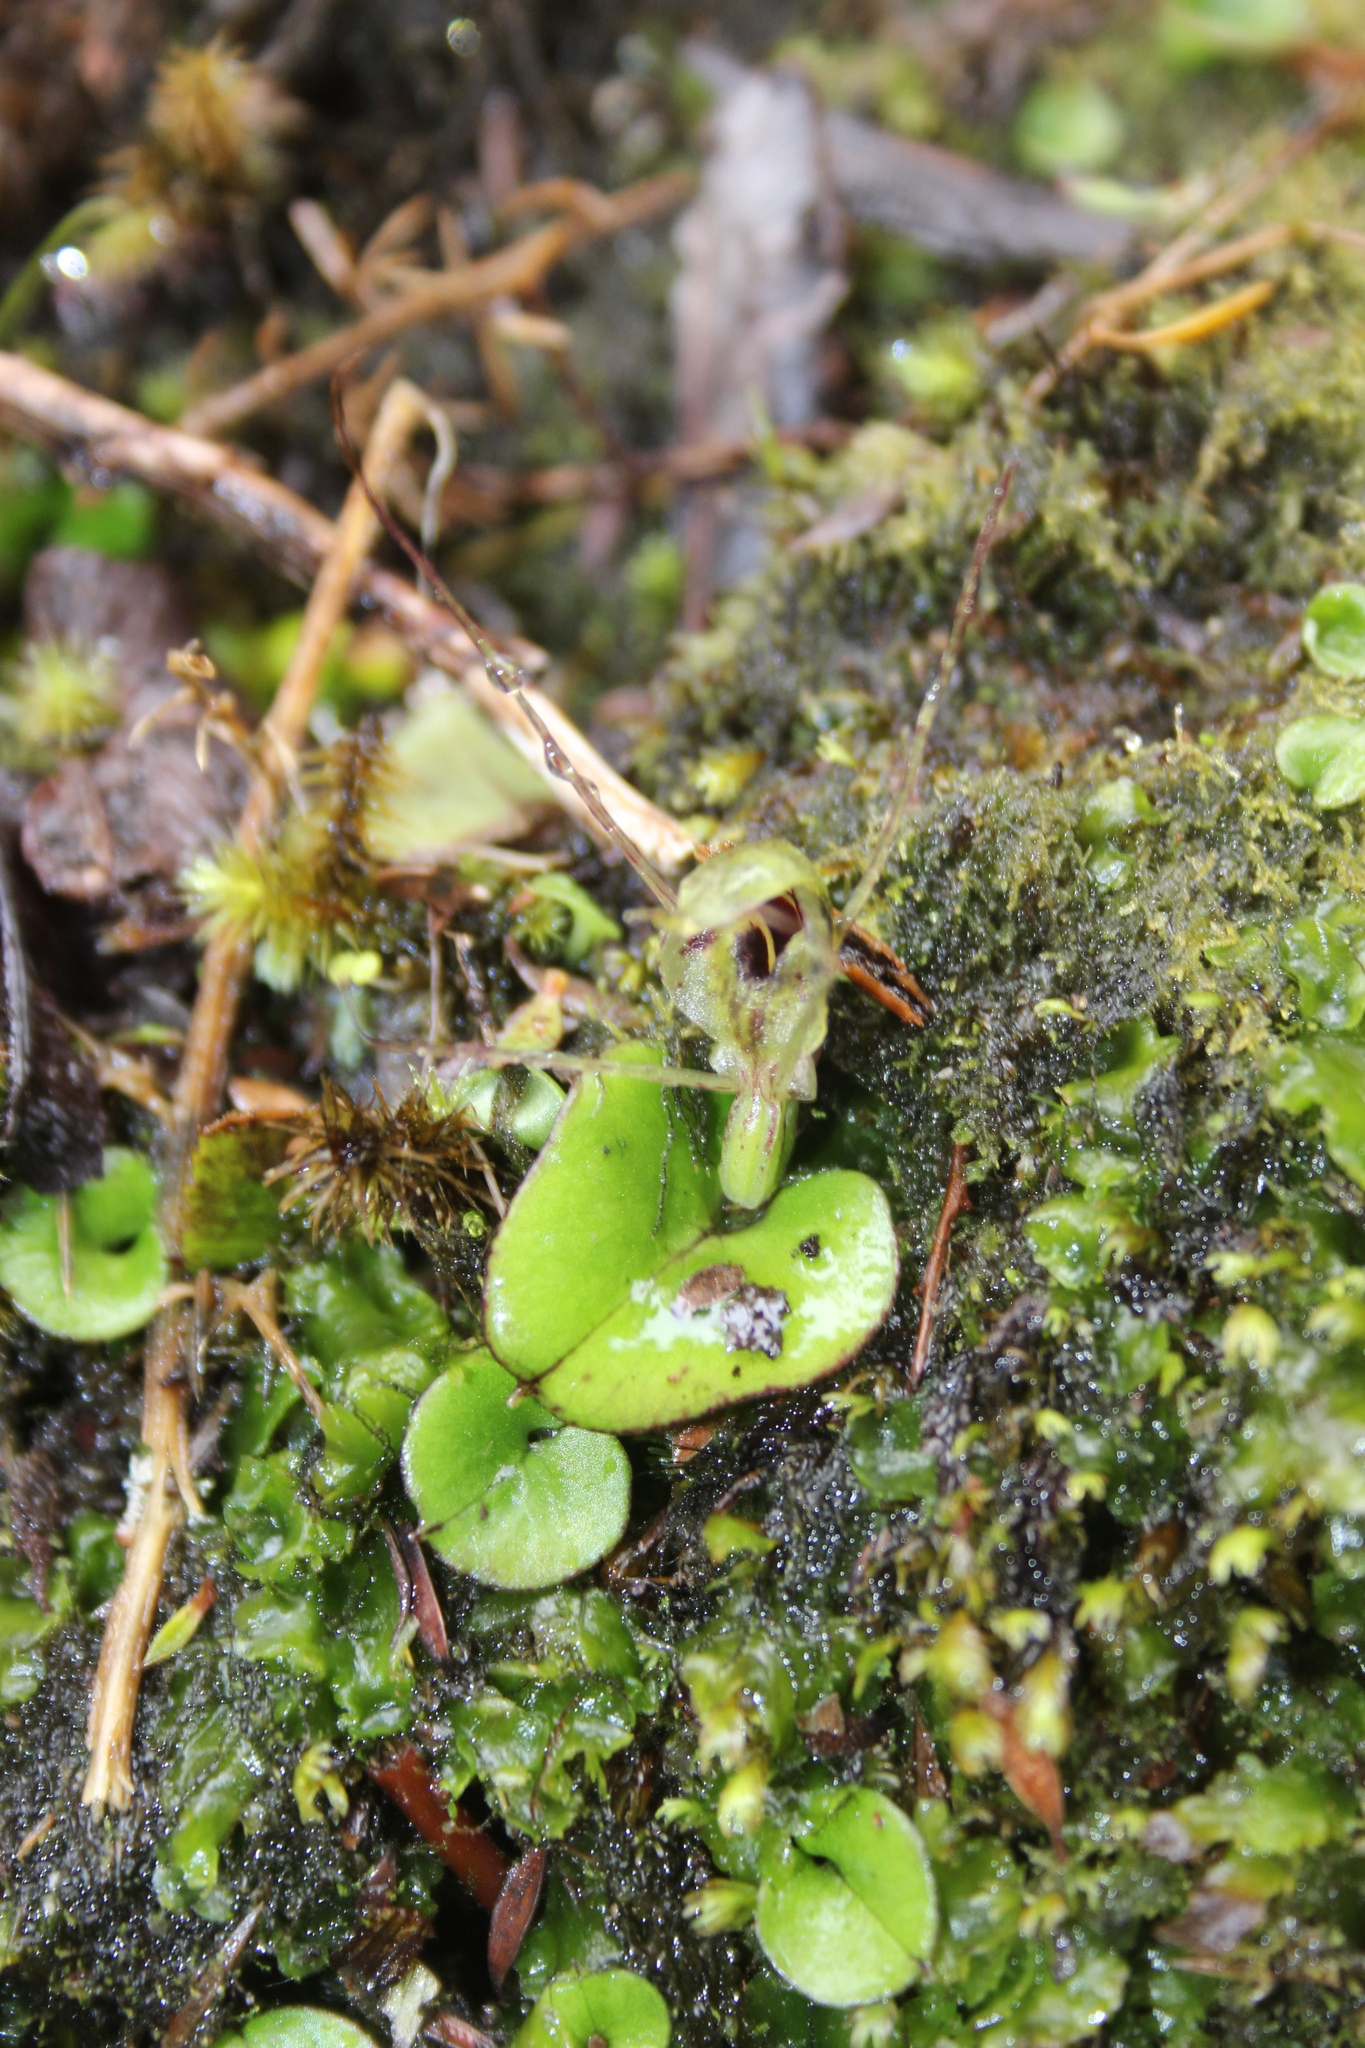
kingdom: Plantae
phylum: Tracheophyta
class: Liliopsida
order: Asparagales
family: Orchidaceae
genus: Corybas
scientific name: Corybas dienemus
